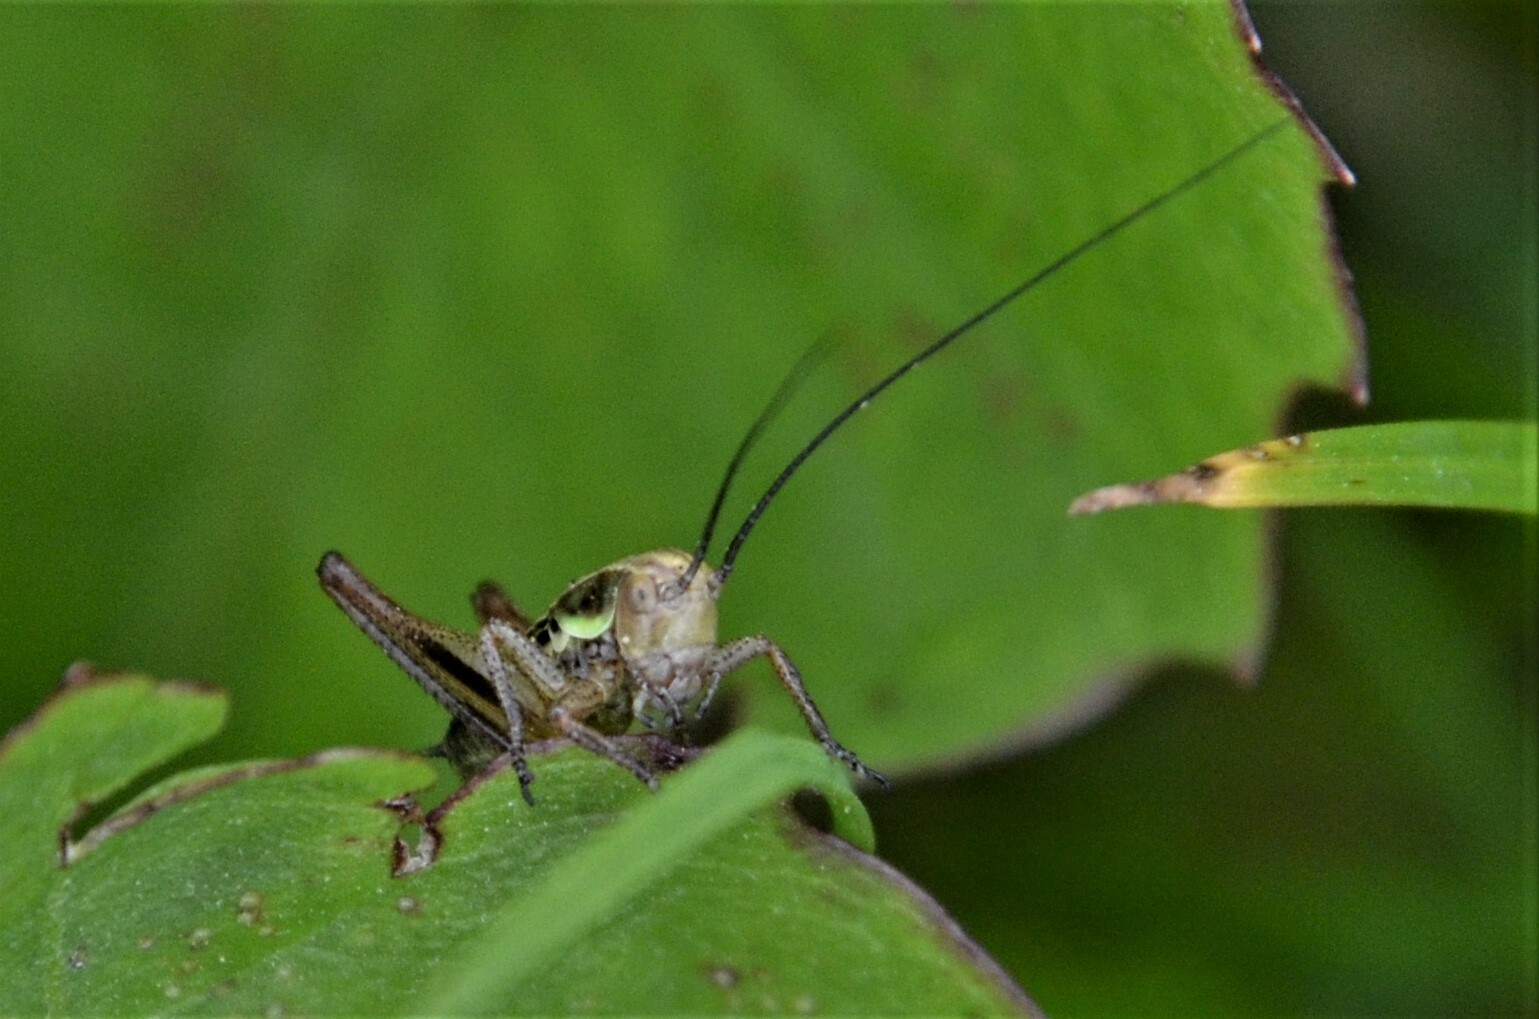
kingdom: Animalia
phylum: Arthropoda
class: Insecta
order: Orthoptera
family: Tettigoniidae
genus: Roeseliana
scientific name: Roeseliana roeselii
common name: Roesel's bush cricket
